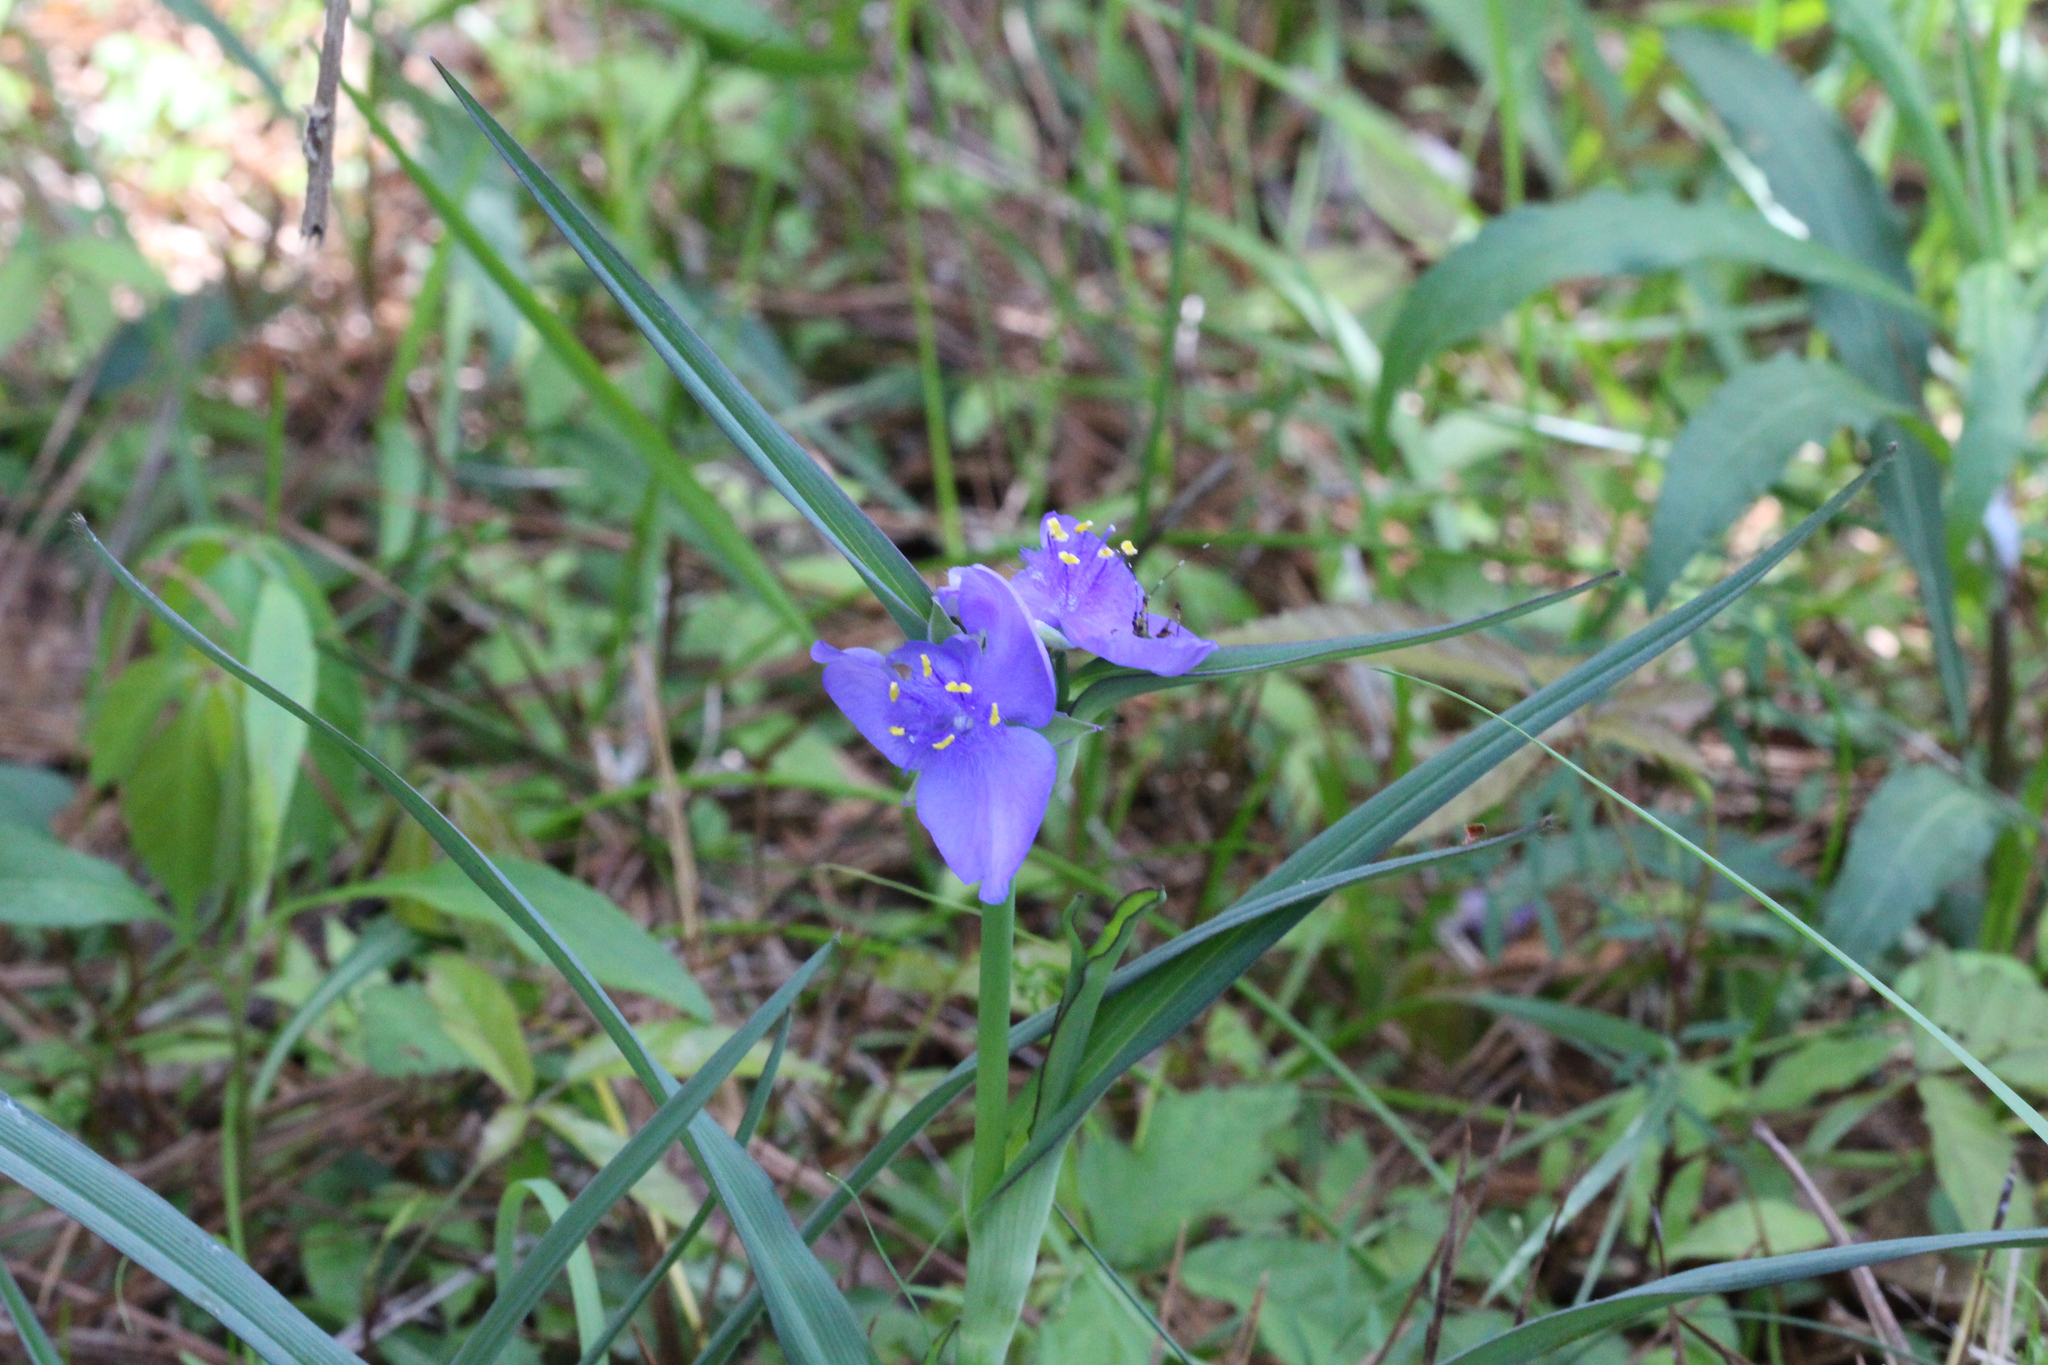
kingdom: Plantae
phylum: Tracheophyta
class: Liliopsida
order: Commelinales
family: Commelinaceae
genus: Tradescantia
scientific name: Tradescantia ohiensis
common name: Ohio spiderwort
